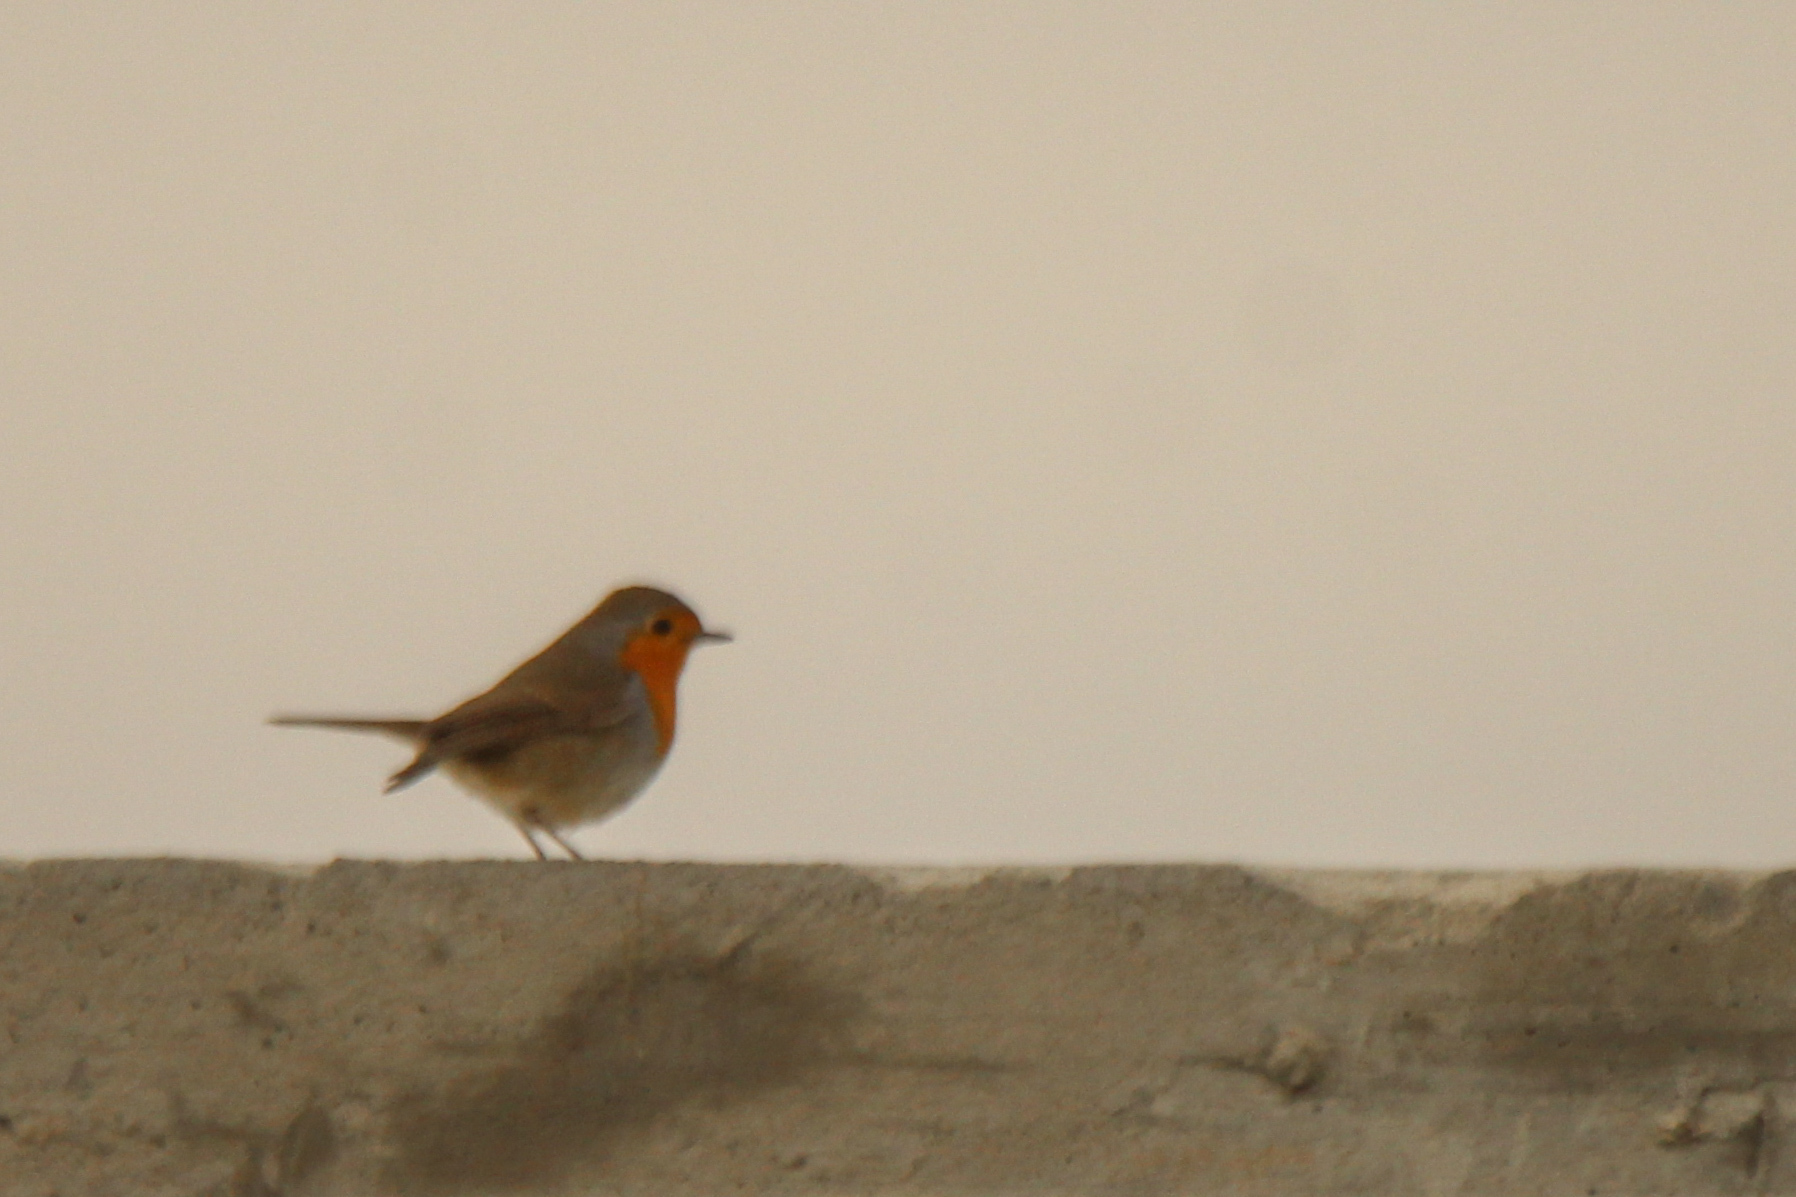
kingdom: Animalia
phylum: Chordata
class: Aves
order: Passeriformes
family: Muscicapidae
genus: Erithacus
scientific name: Erithacus rubecula
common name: European robin
